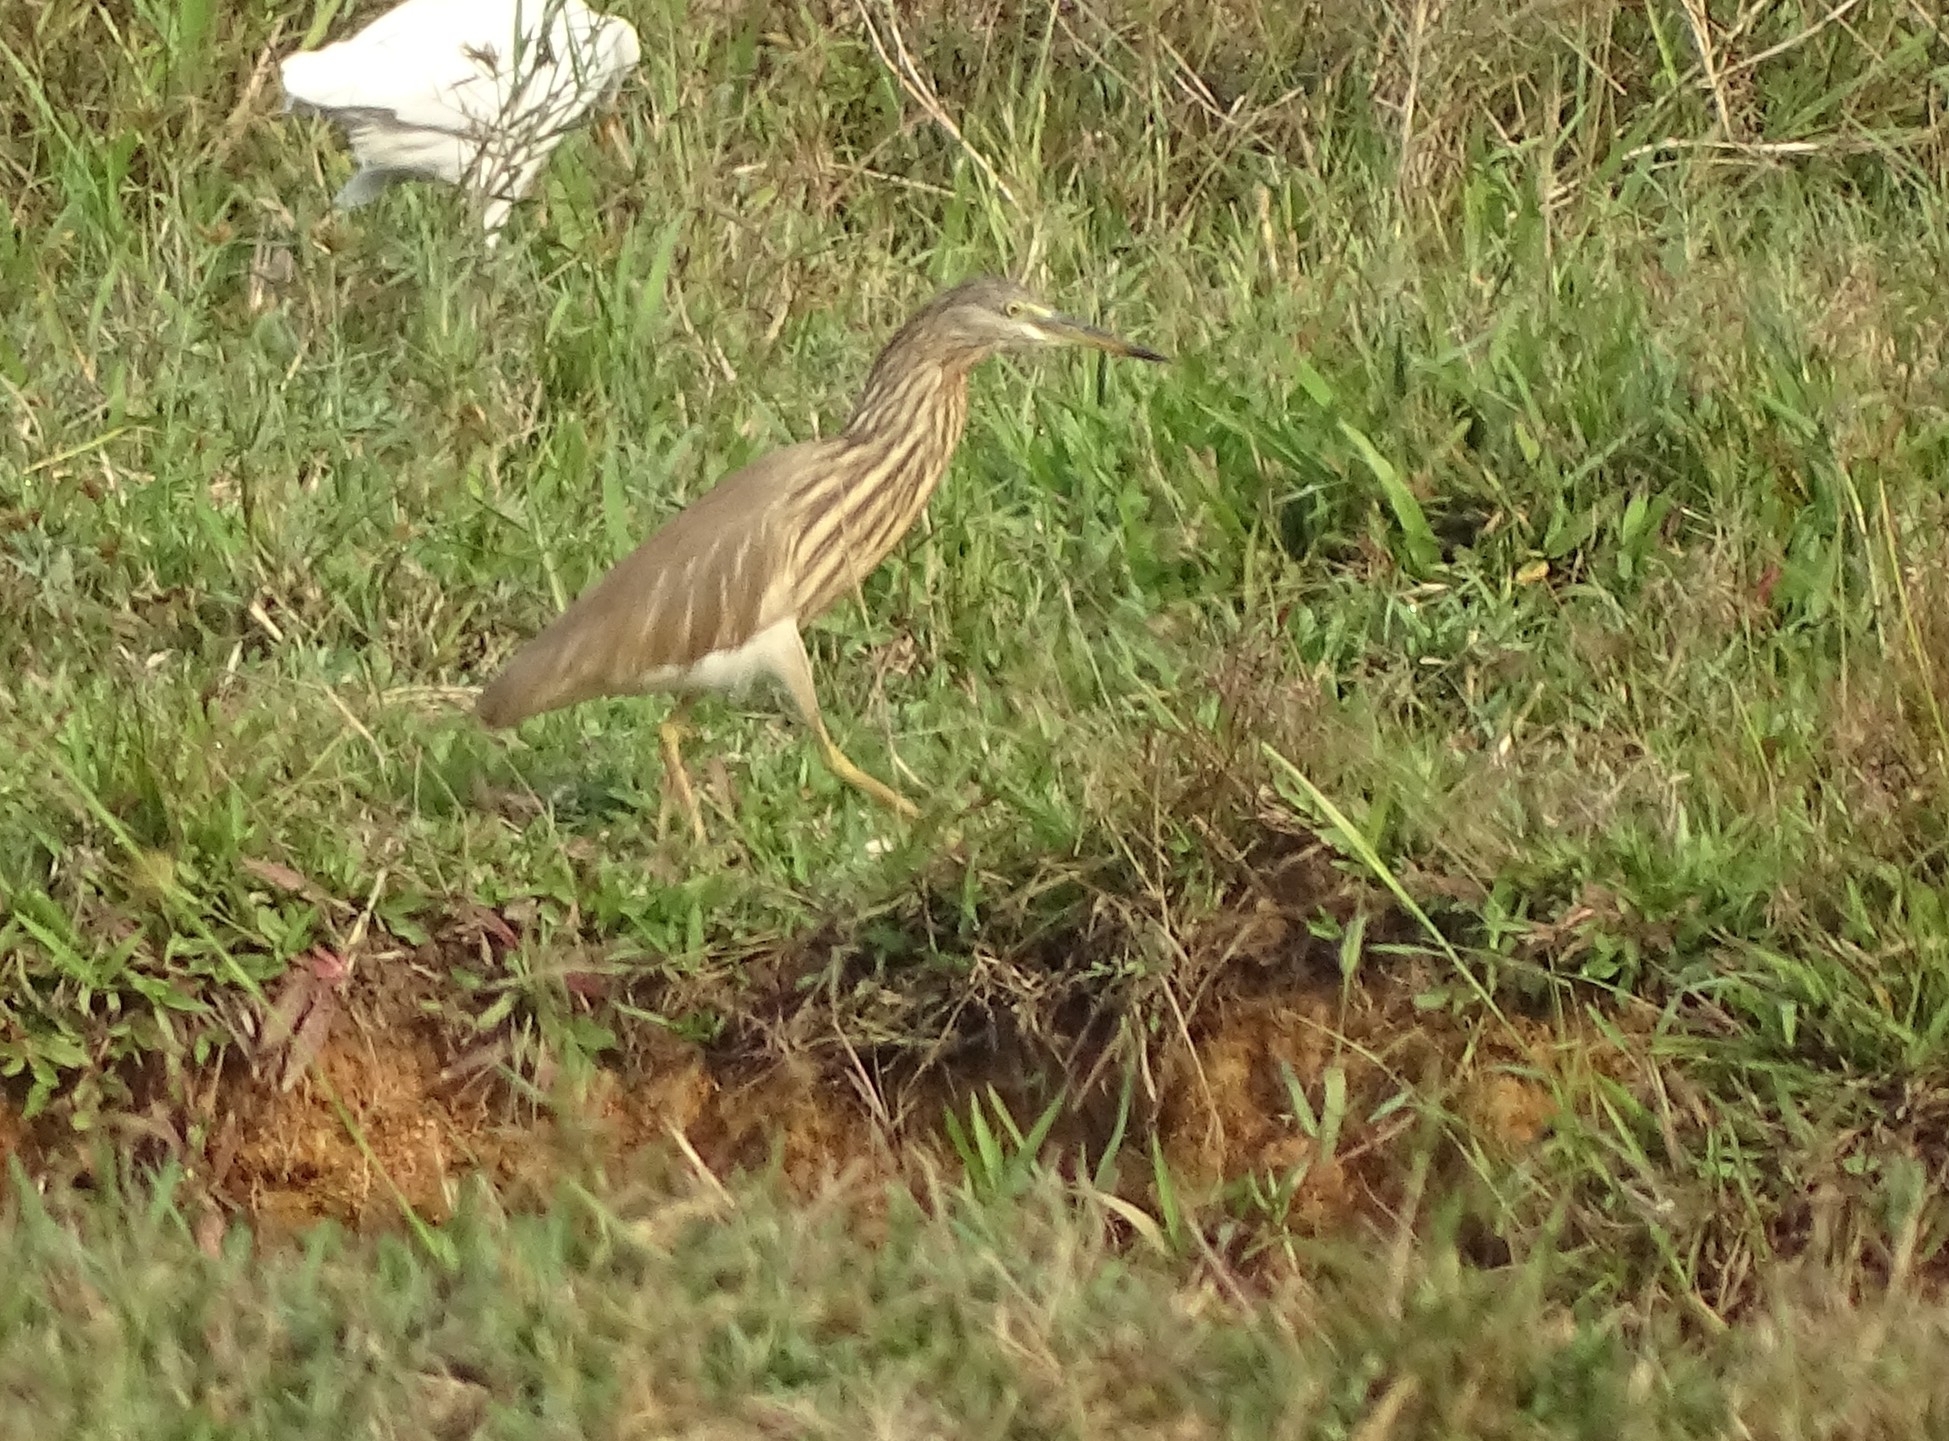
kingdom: Animalia
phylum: Chordata
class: Aves
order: Pelecaniformes
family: Ardeidae
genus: Ardeola
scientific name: Ardeola grayii
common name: Indian pond heron
